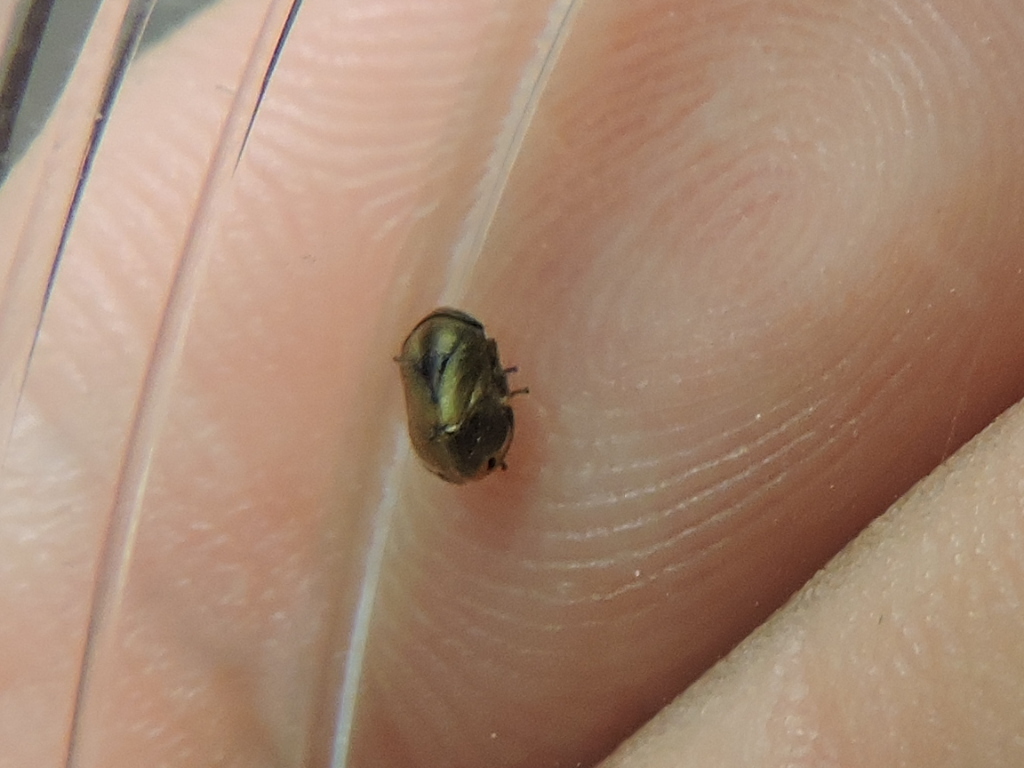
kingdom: Animalia
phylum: Arthropoda
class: Insecta
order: Hemiptera
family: Clastopteridae
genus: Clastoptera
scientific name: Clastoptera xanthocephala
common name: Sunflower spittlebug
